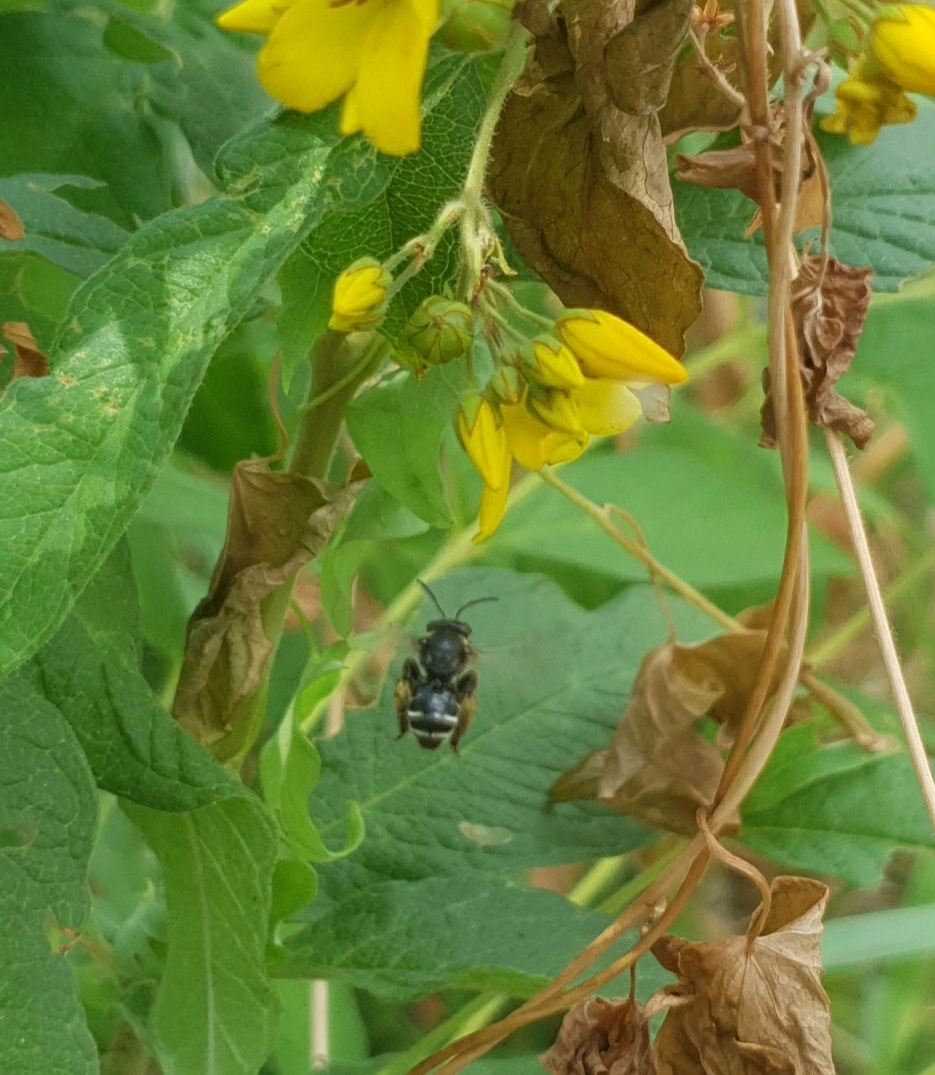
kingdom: Animalia
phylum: Arthropoda
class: Insecta
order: Hymenoptera
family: Melittidae
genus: Macropis
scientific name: Macropis
